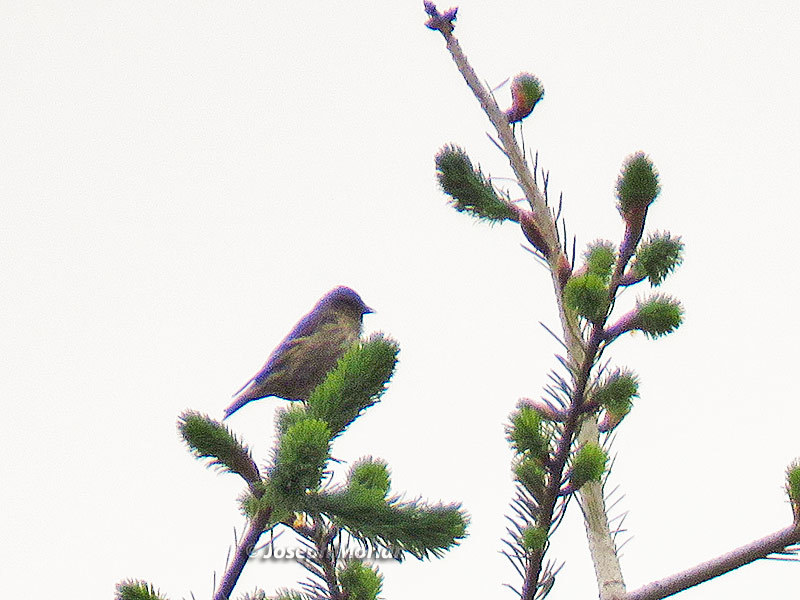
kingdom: Animalia
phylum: Chordata
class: Aves
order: Passeriformes
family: Fringillidae
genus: Spinus
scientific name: Spinus pinus
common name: Pine siskin
